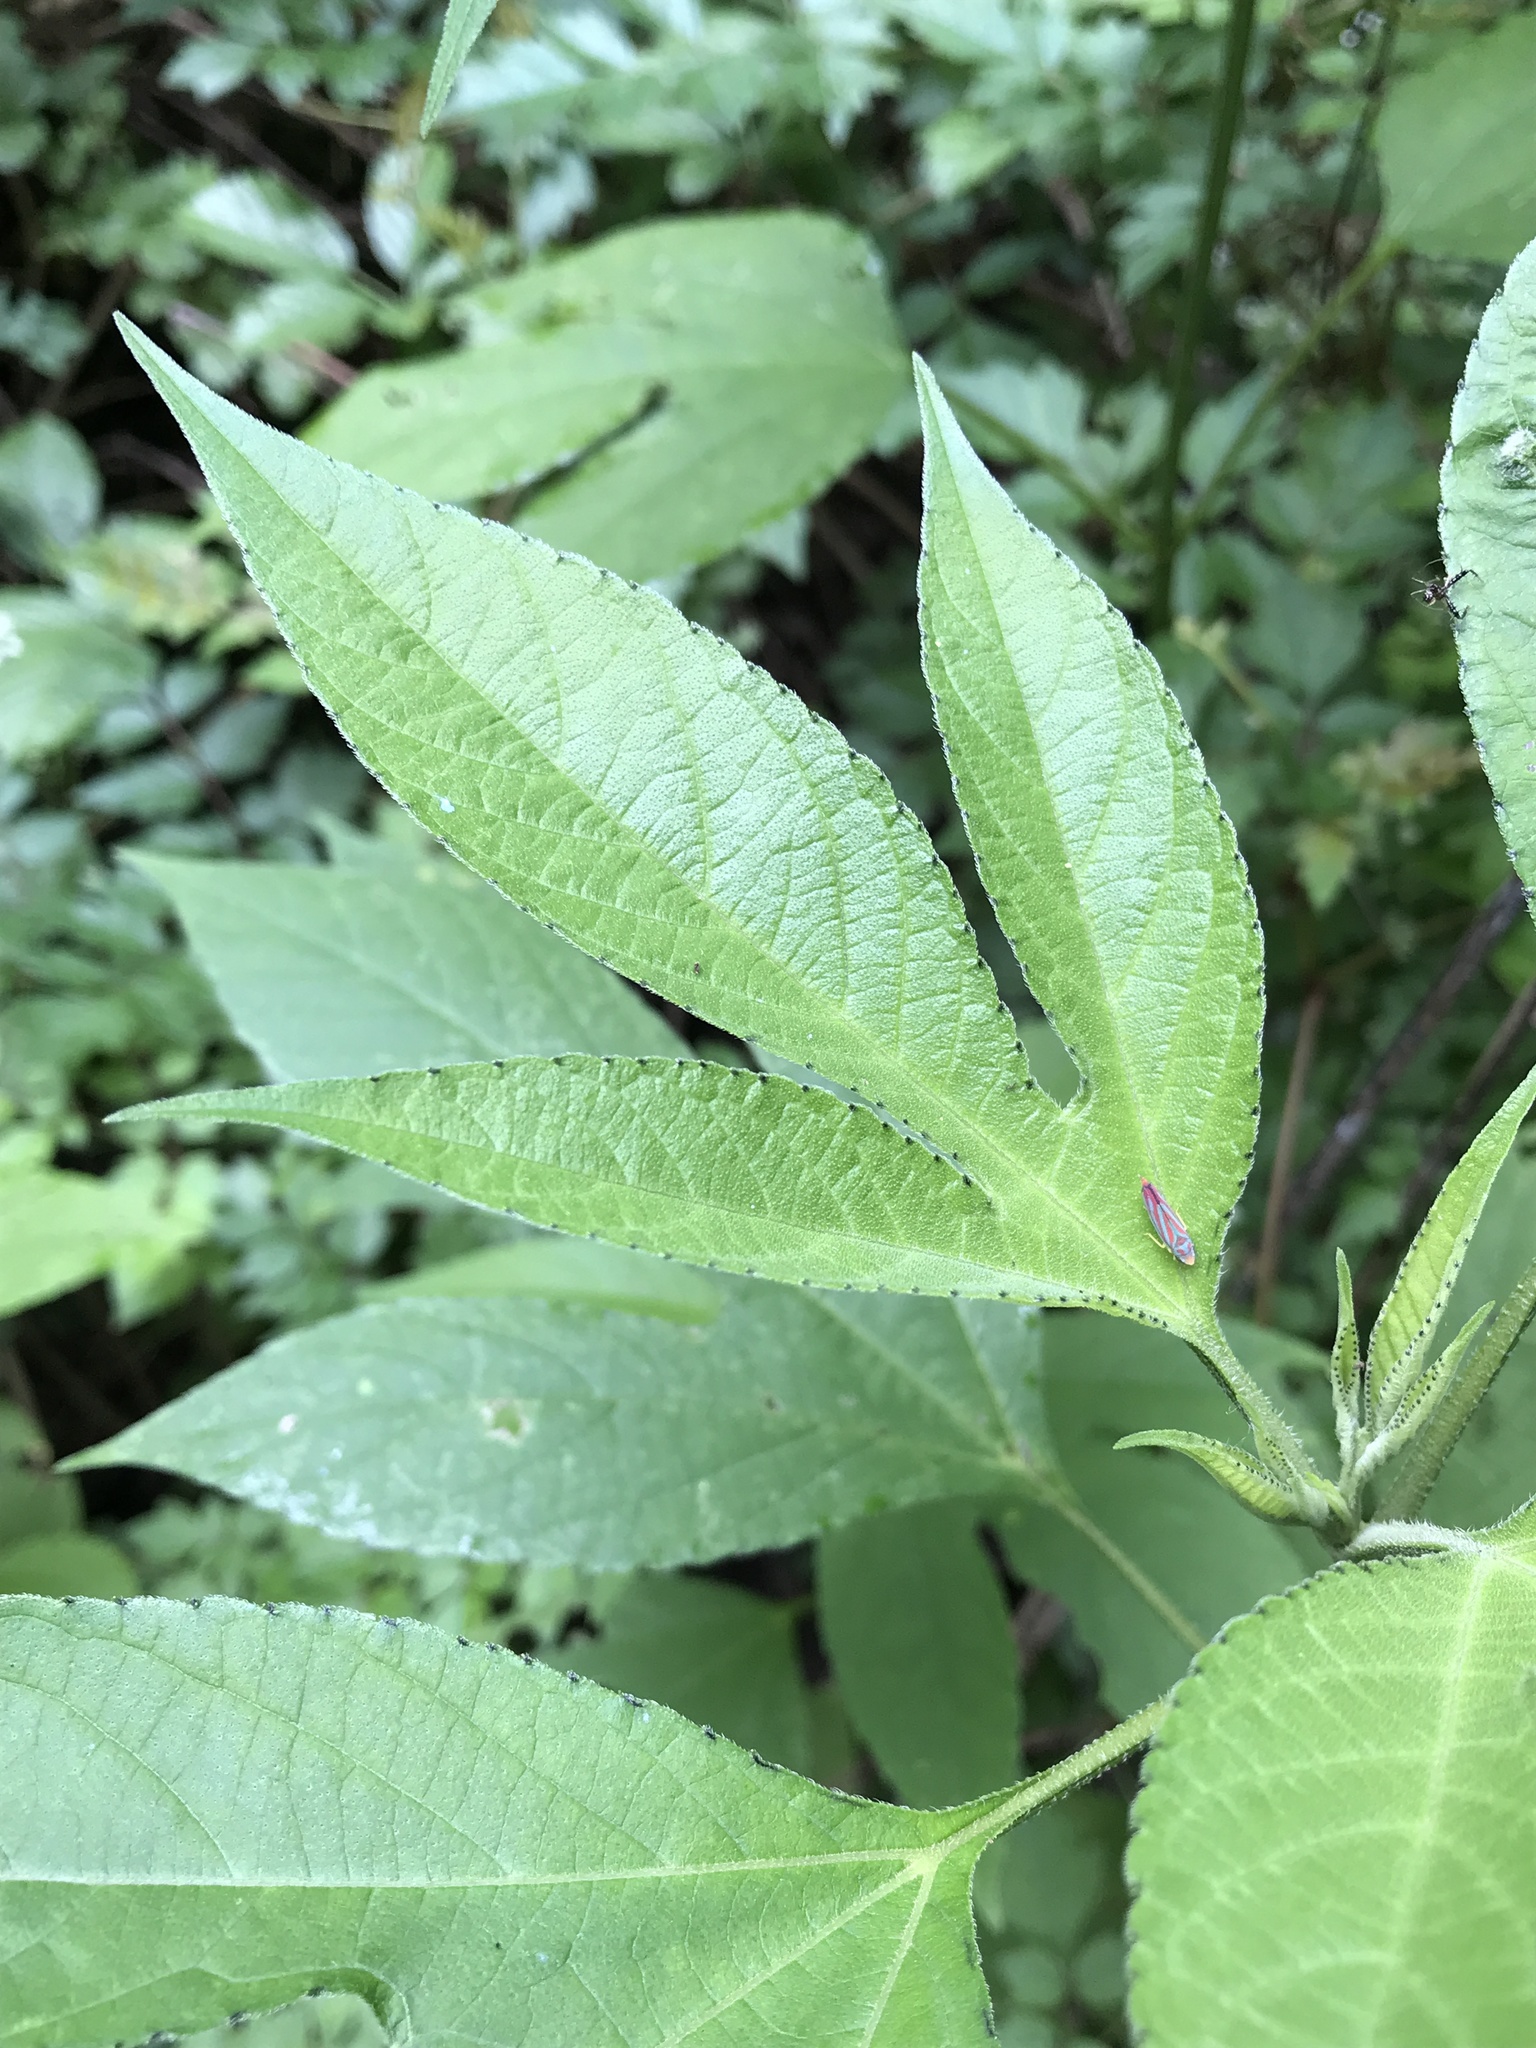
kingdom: Plantae
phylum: Tracheophyta
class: Magnoliopsida
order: Asterales
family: Asteraceae
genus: Ambrosia
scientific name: Ambrosia trifida
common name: Giant ragweed
